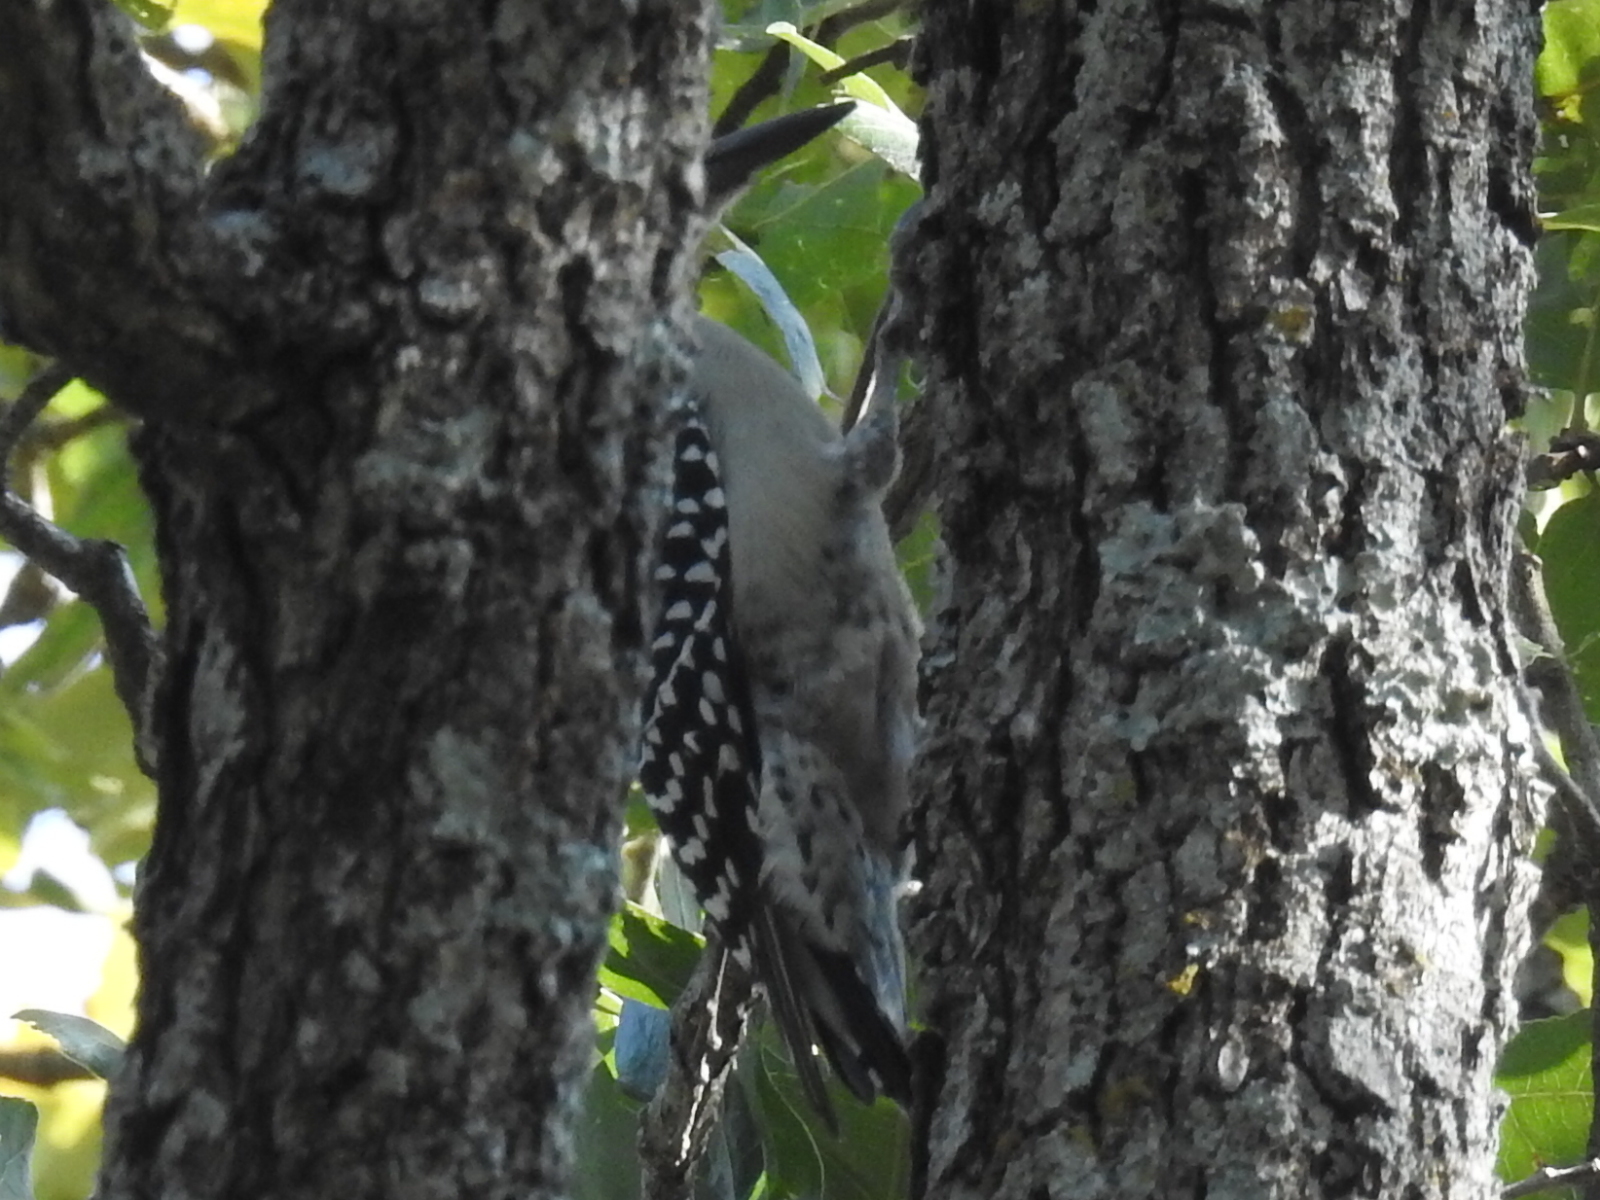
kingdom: Animalia
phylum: Chordata
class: Aves
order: Piciformes
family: Picidae
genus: Melanerpes
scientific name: Melanerpes carolinus
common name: Red-bellied woodpecker
